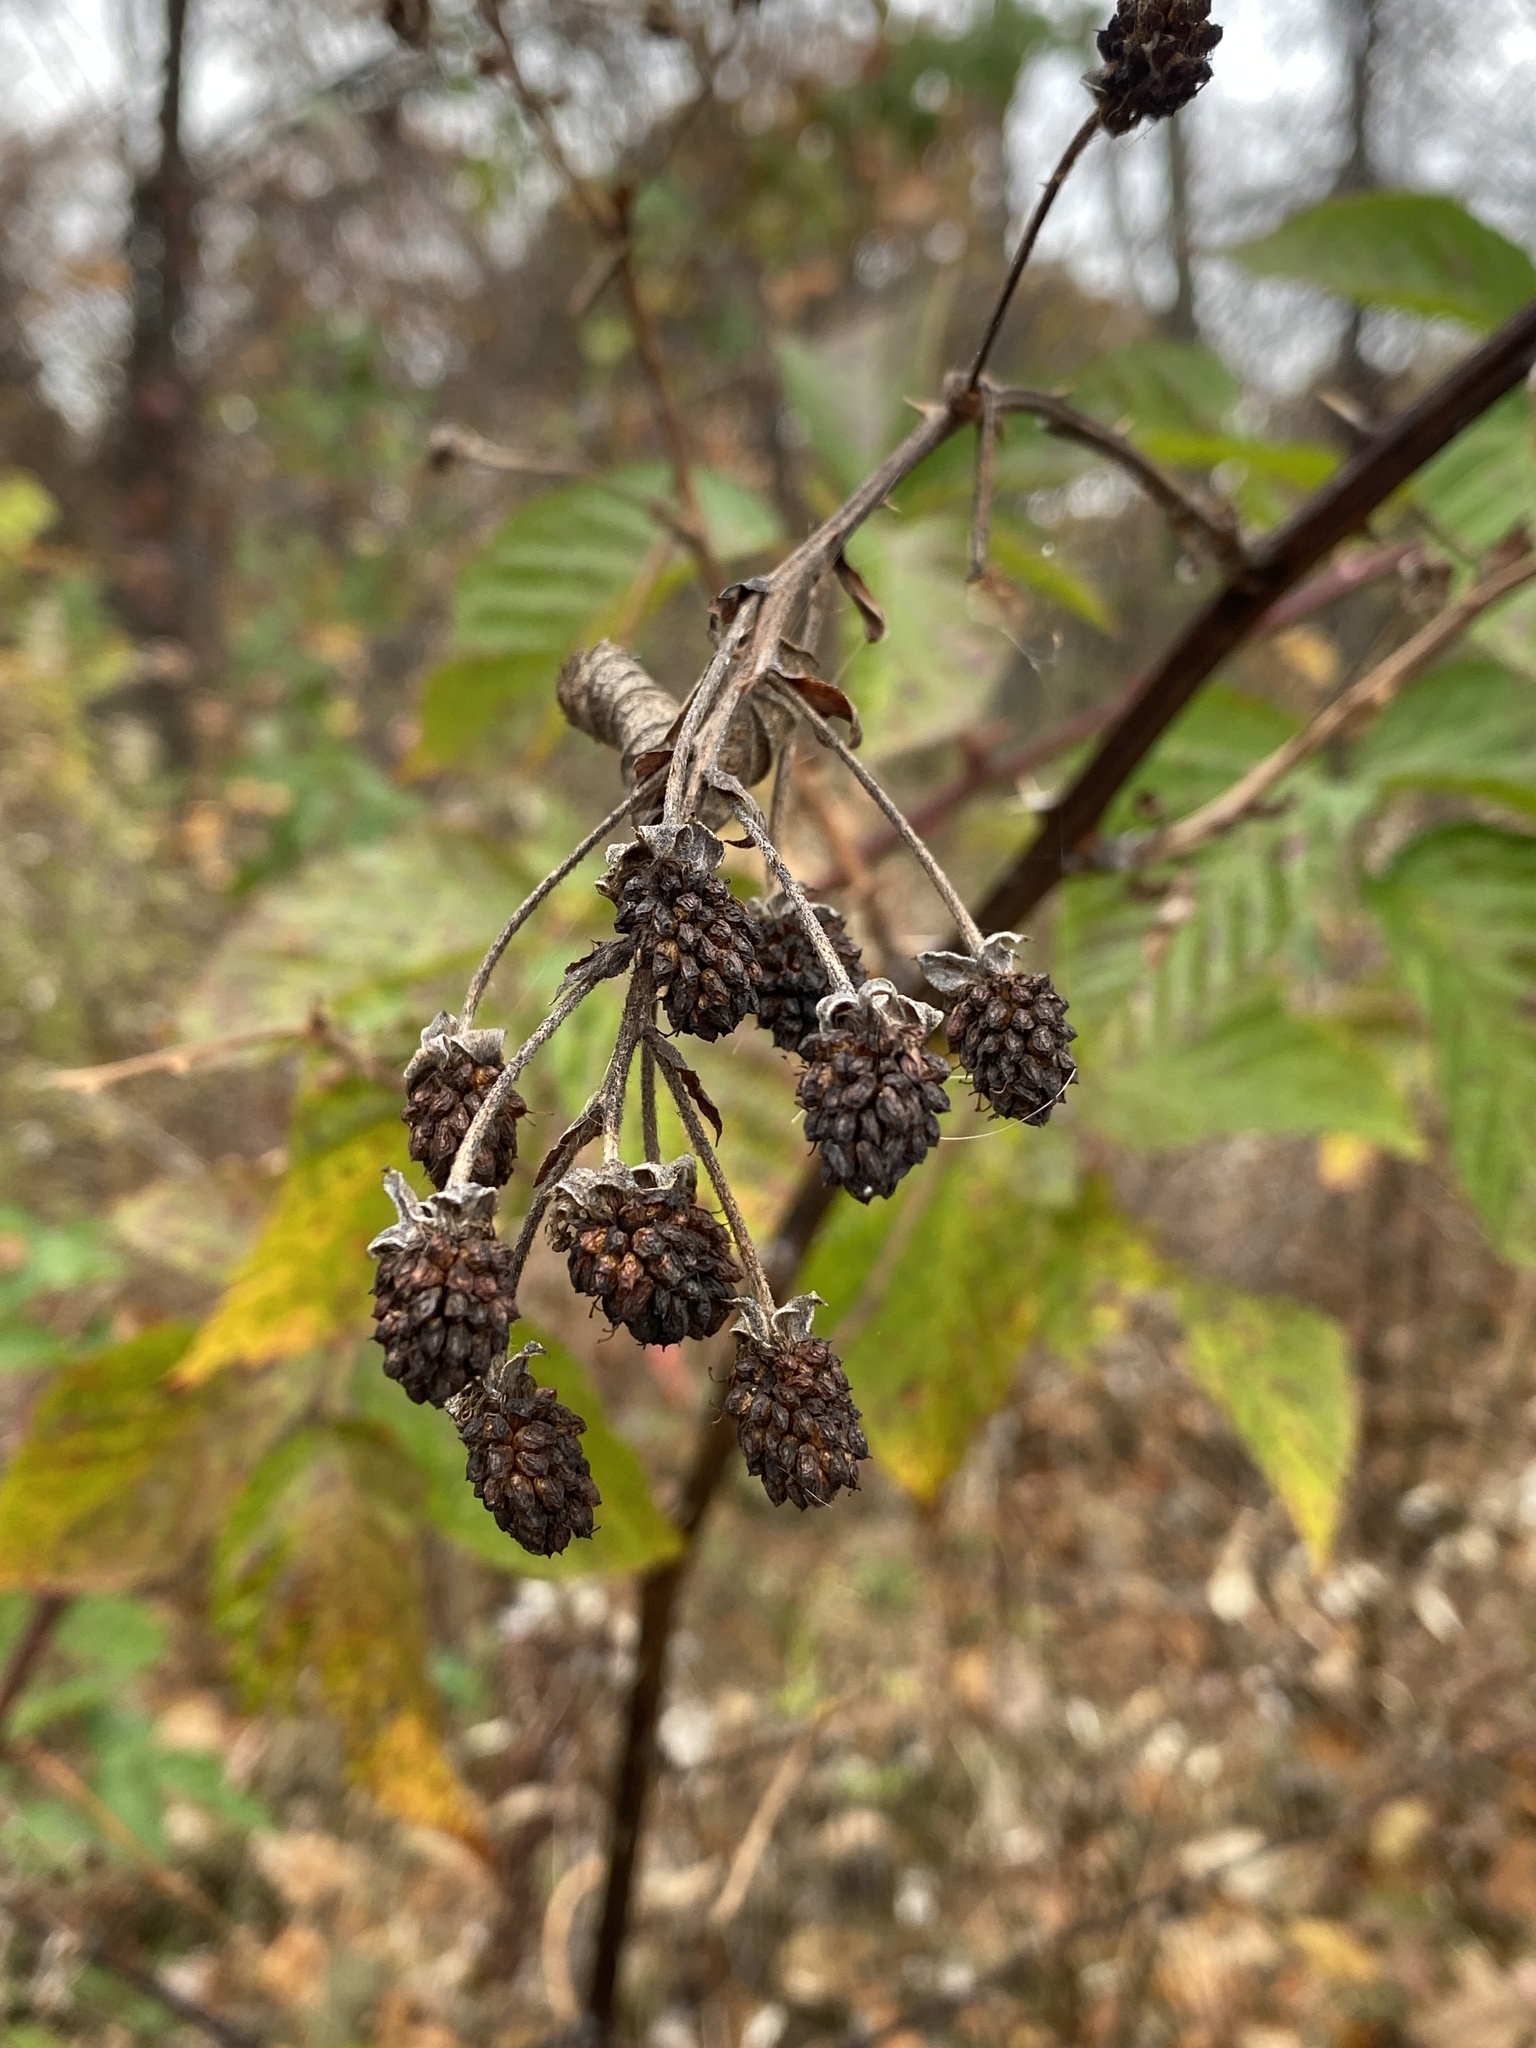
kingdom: Plantae
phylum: Tracheophyta
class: Magnoliopsida
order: Rosales
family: Rosaceae
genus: Rubus
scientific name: Rubus allegheniensis
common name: Allegheny blackberry
